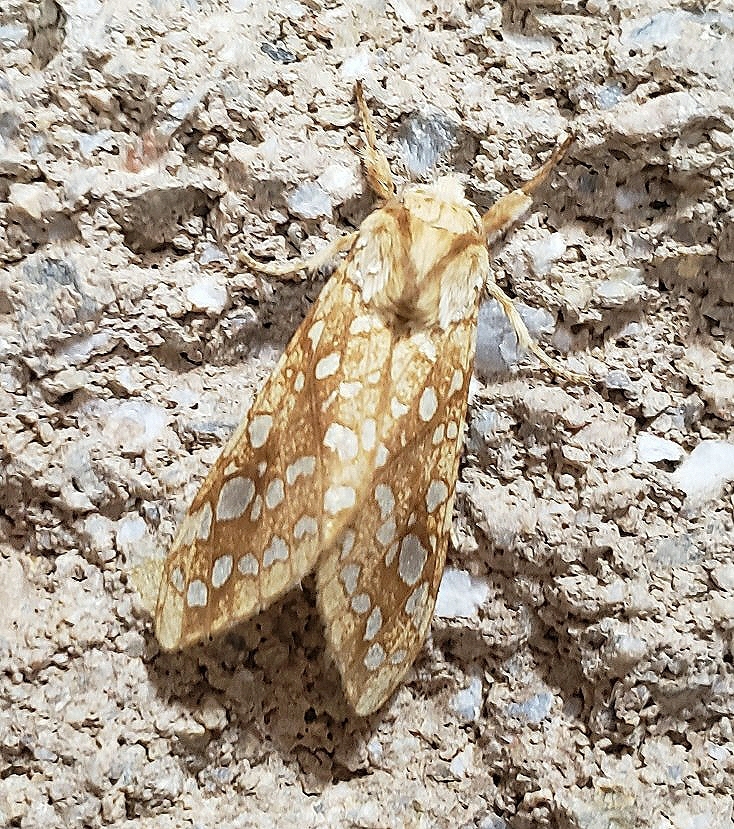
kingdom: Animalia
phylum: Arthropoda
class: Insecta
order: Lepidoptera
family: Erebidae
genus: Lophocampa
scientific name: Lophocampa caryae
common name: Hickory tussock moth
